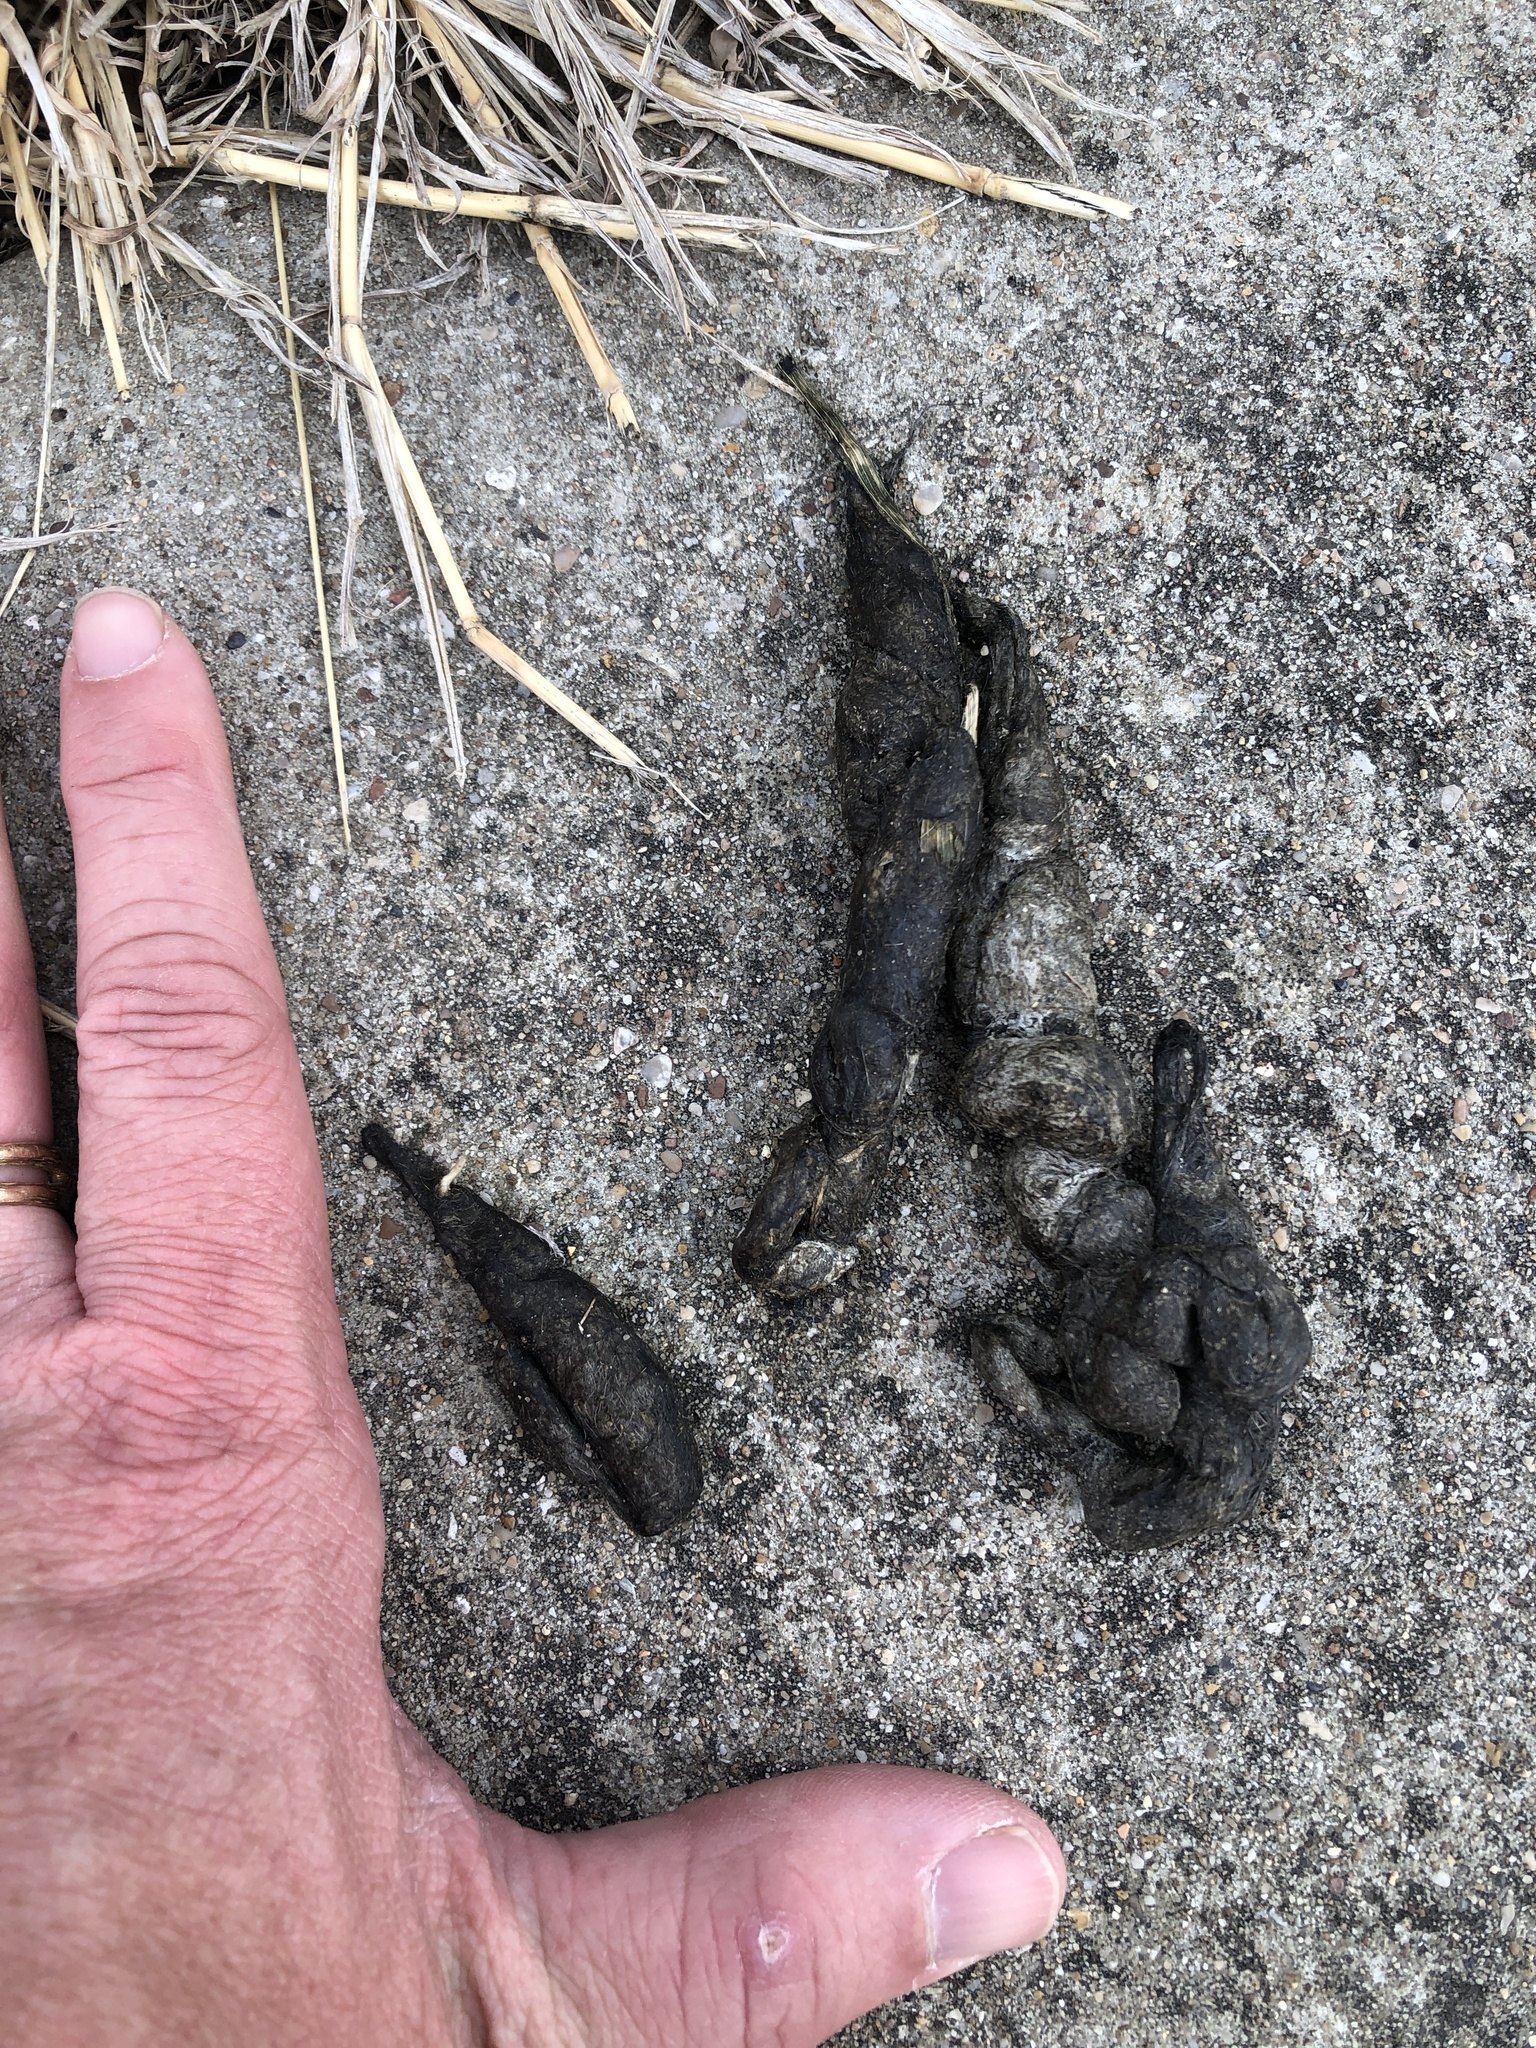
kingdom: Animalia
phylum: Chordata
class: Mammalia
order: Carnivora
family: Canidae
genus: Canis
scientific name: Canis latrans
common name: Coyote
